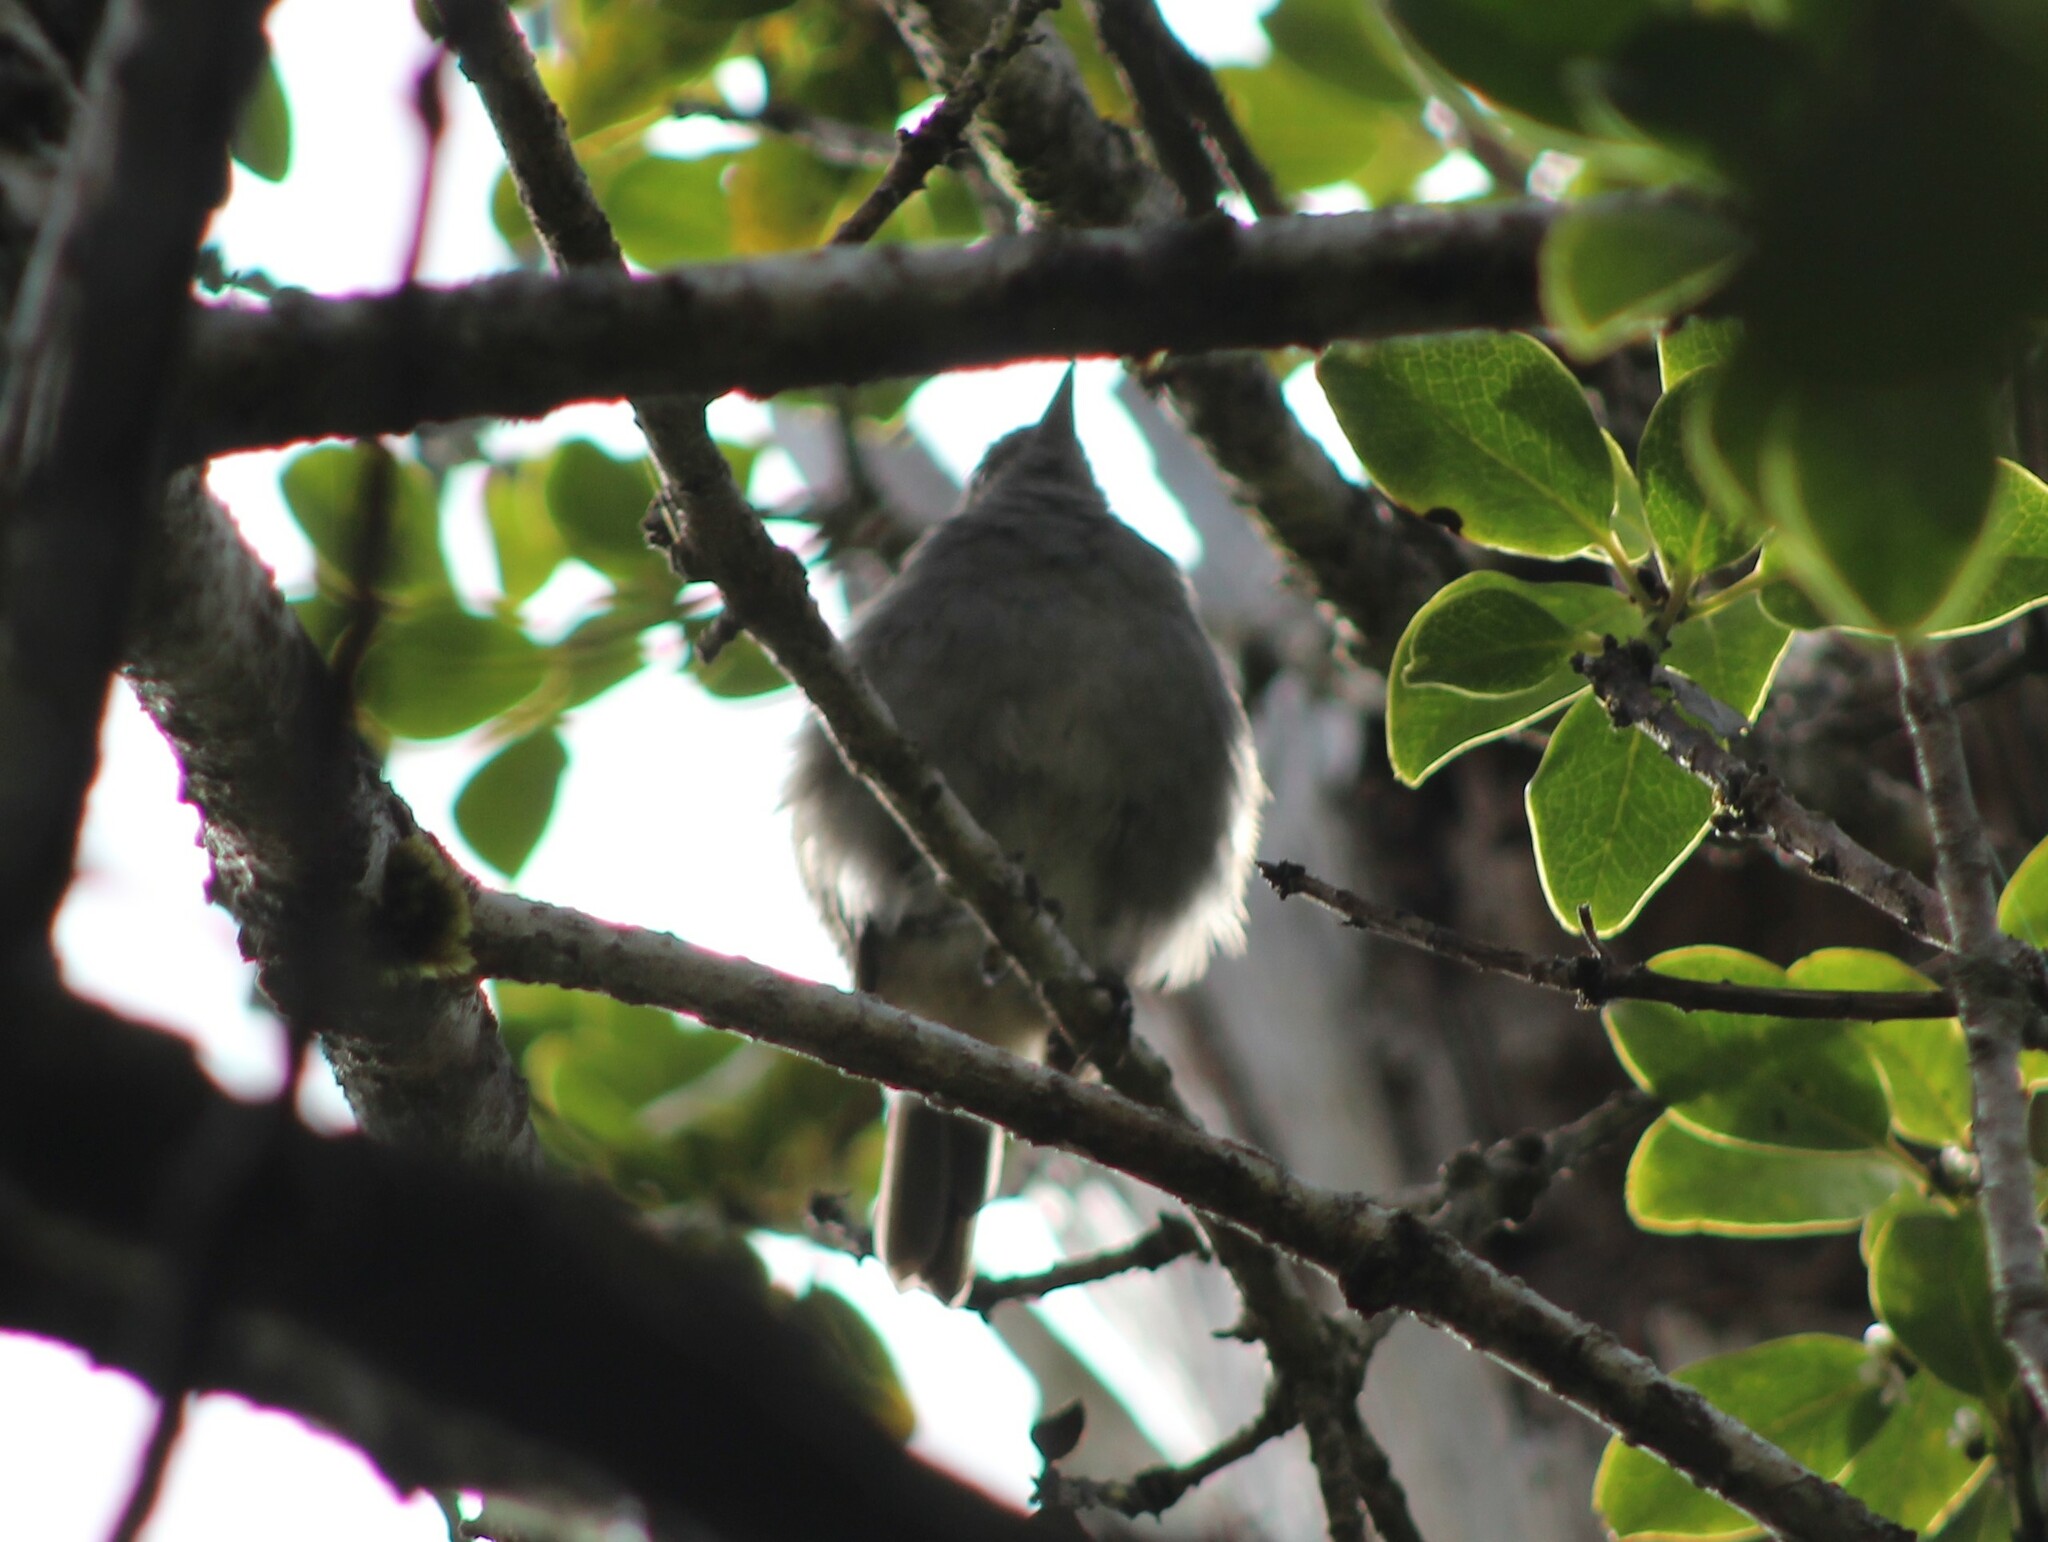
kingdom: Animalia
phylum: Chordata
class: Aves
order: Passeriformes
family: Turdidae
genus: Myadestes
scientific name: Myadestes obscurus
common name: Omao
